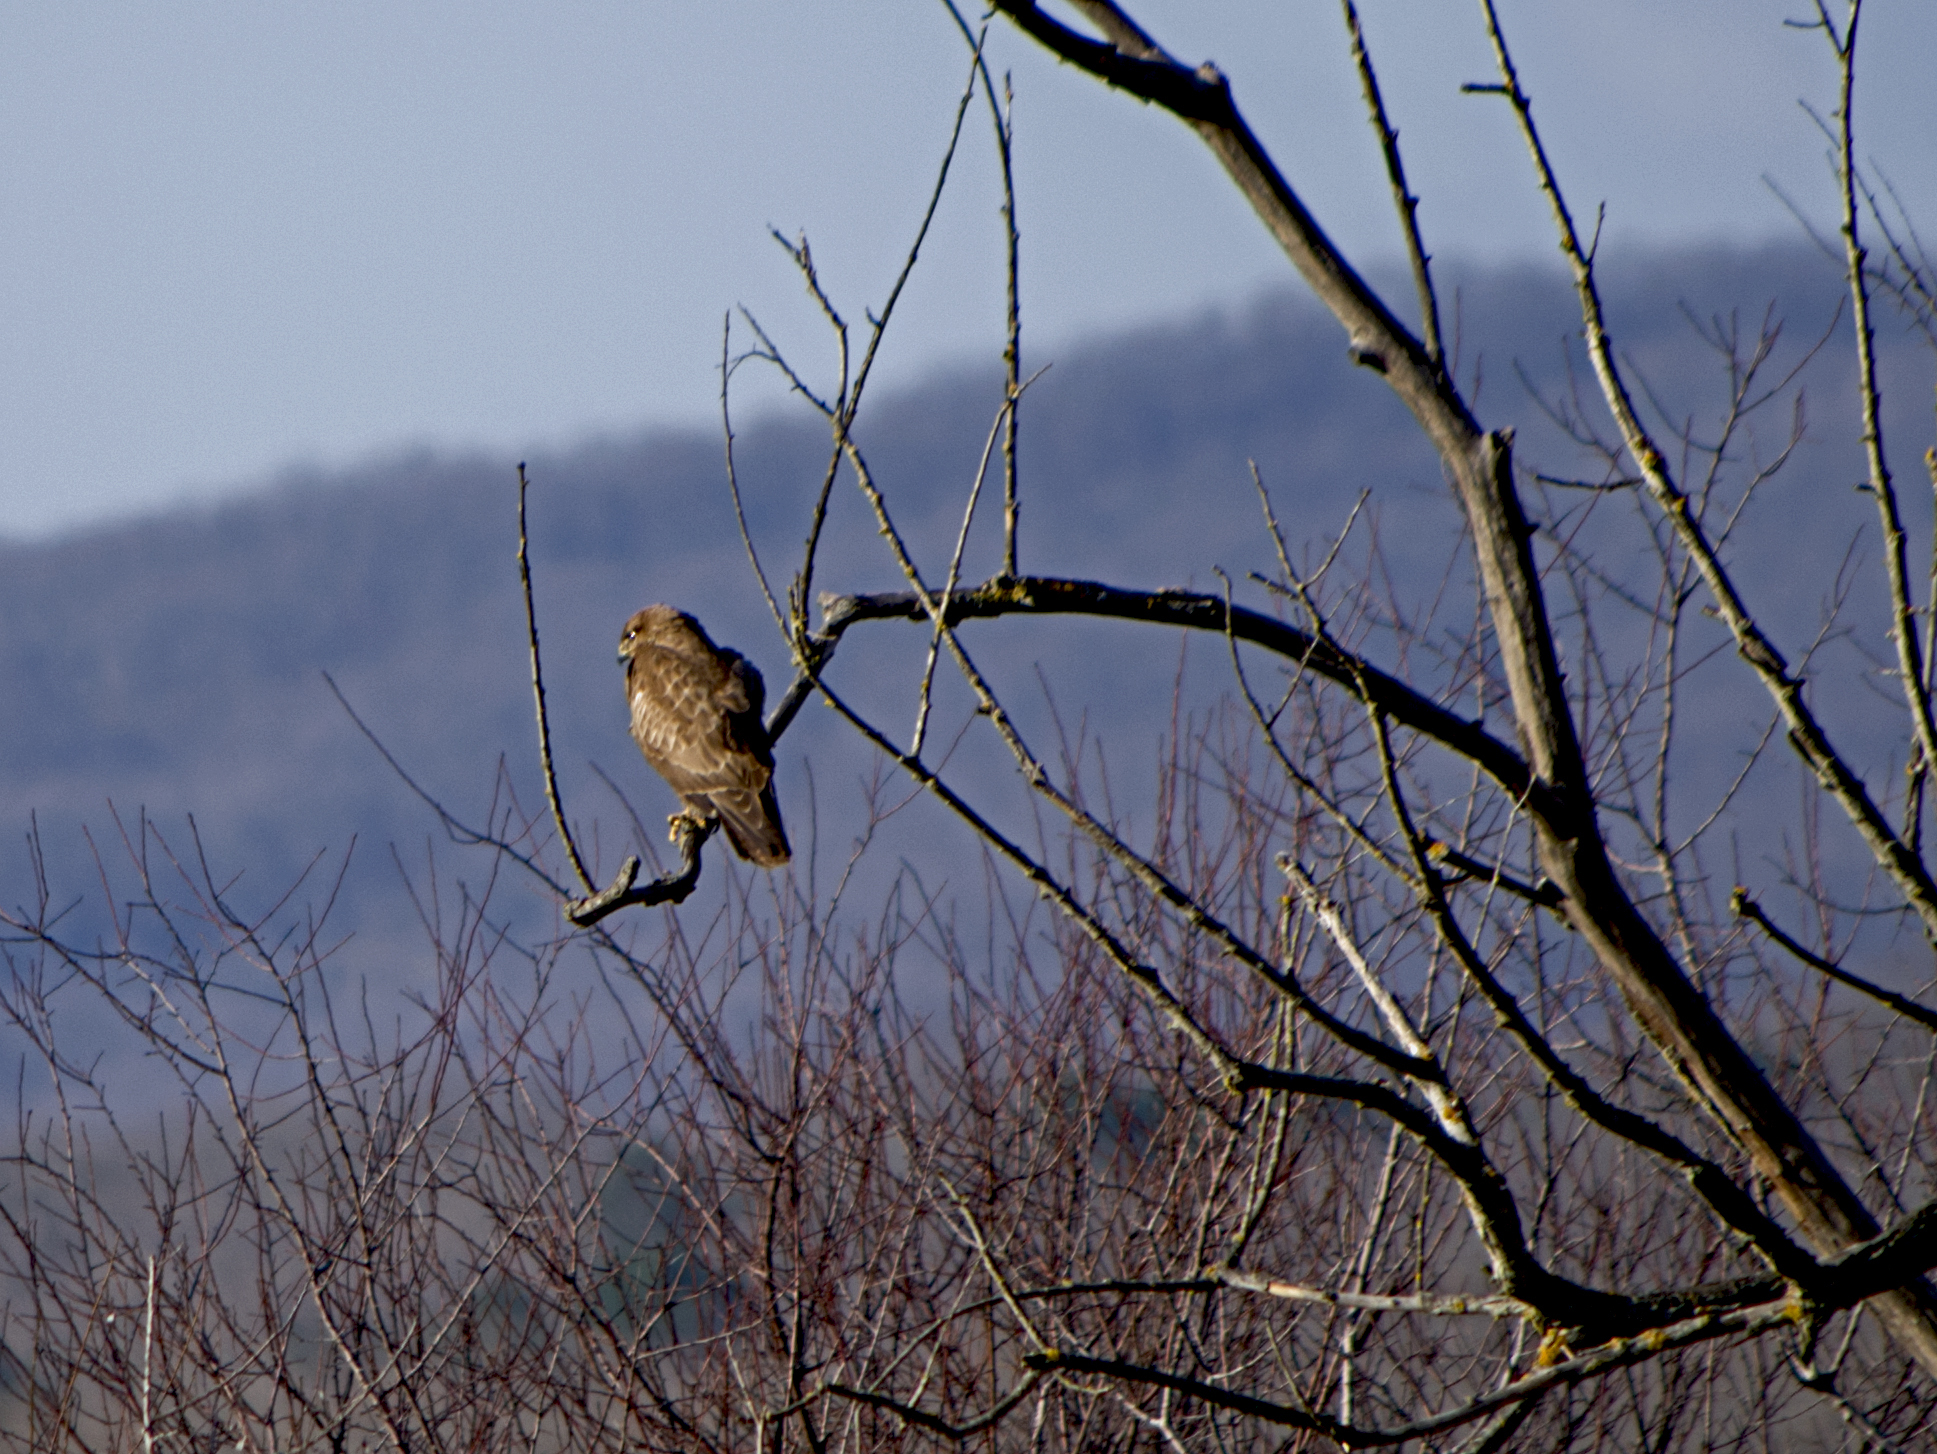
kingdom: Animalia
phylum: Chordata
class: Aves
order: Accipitriformes
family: Accipitridae
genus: Buteo
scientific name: Buteo buteo
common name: Common buzzard
